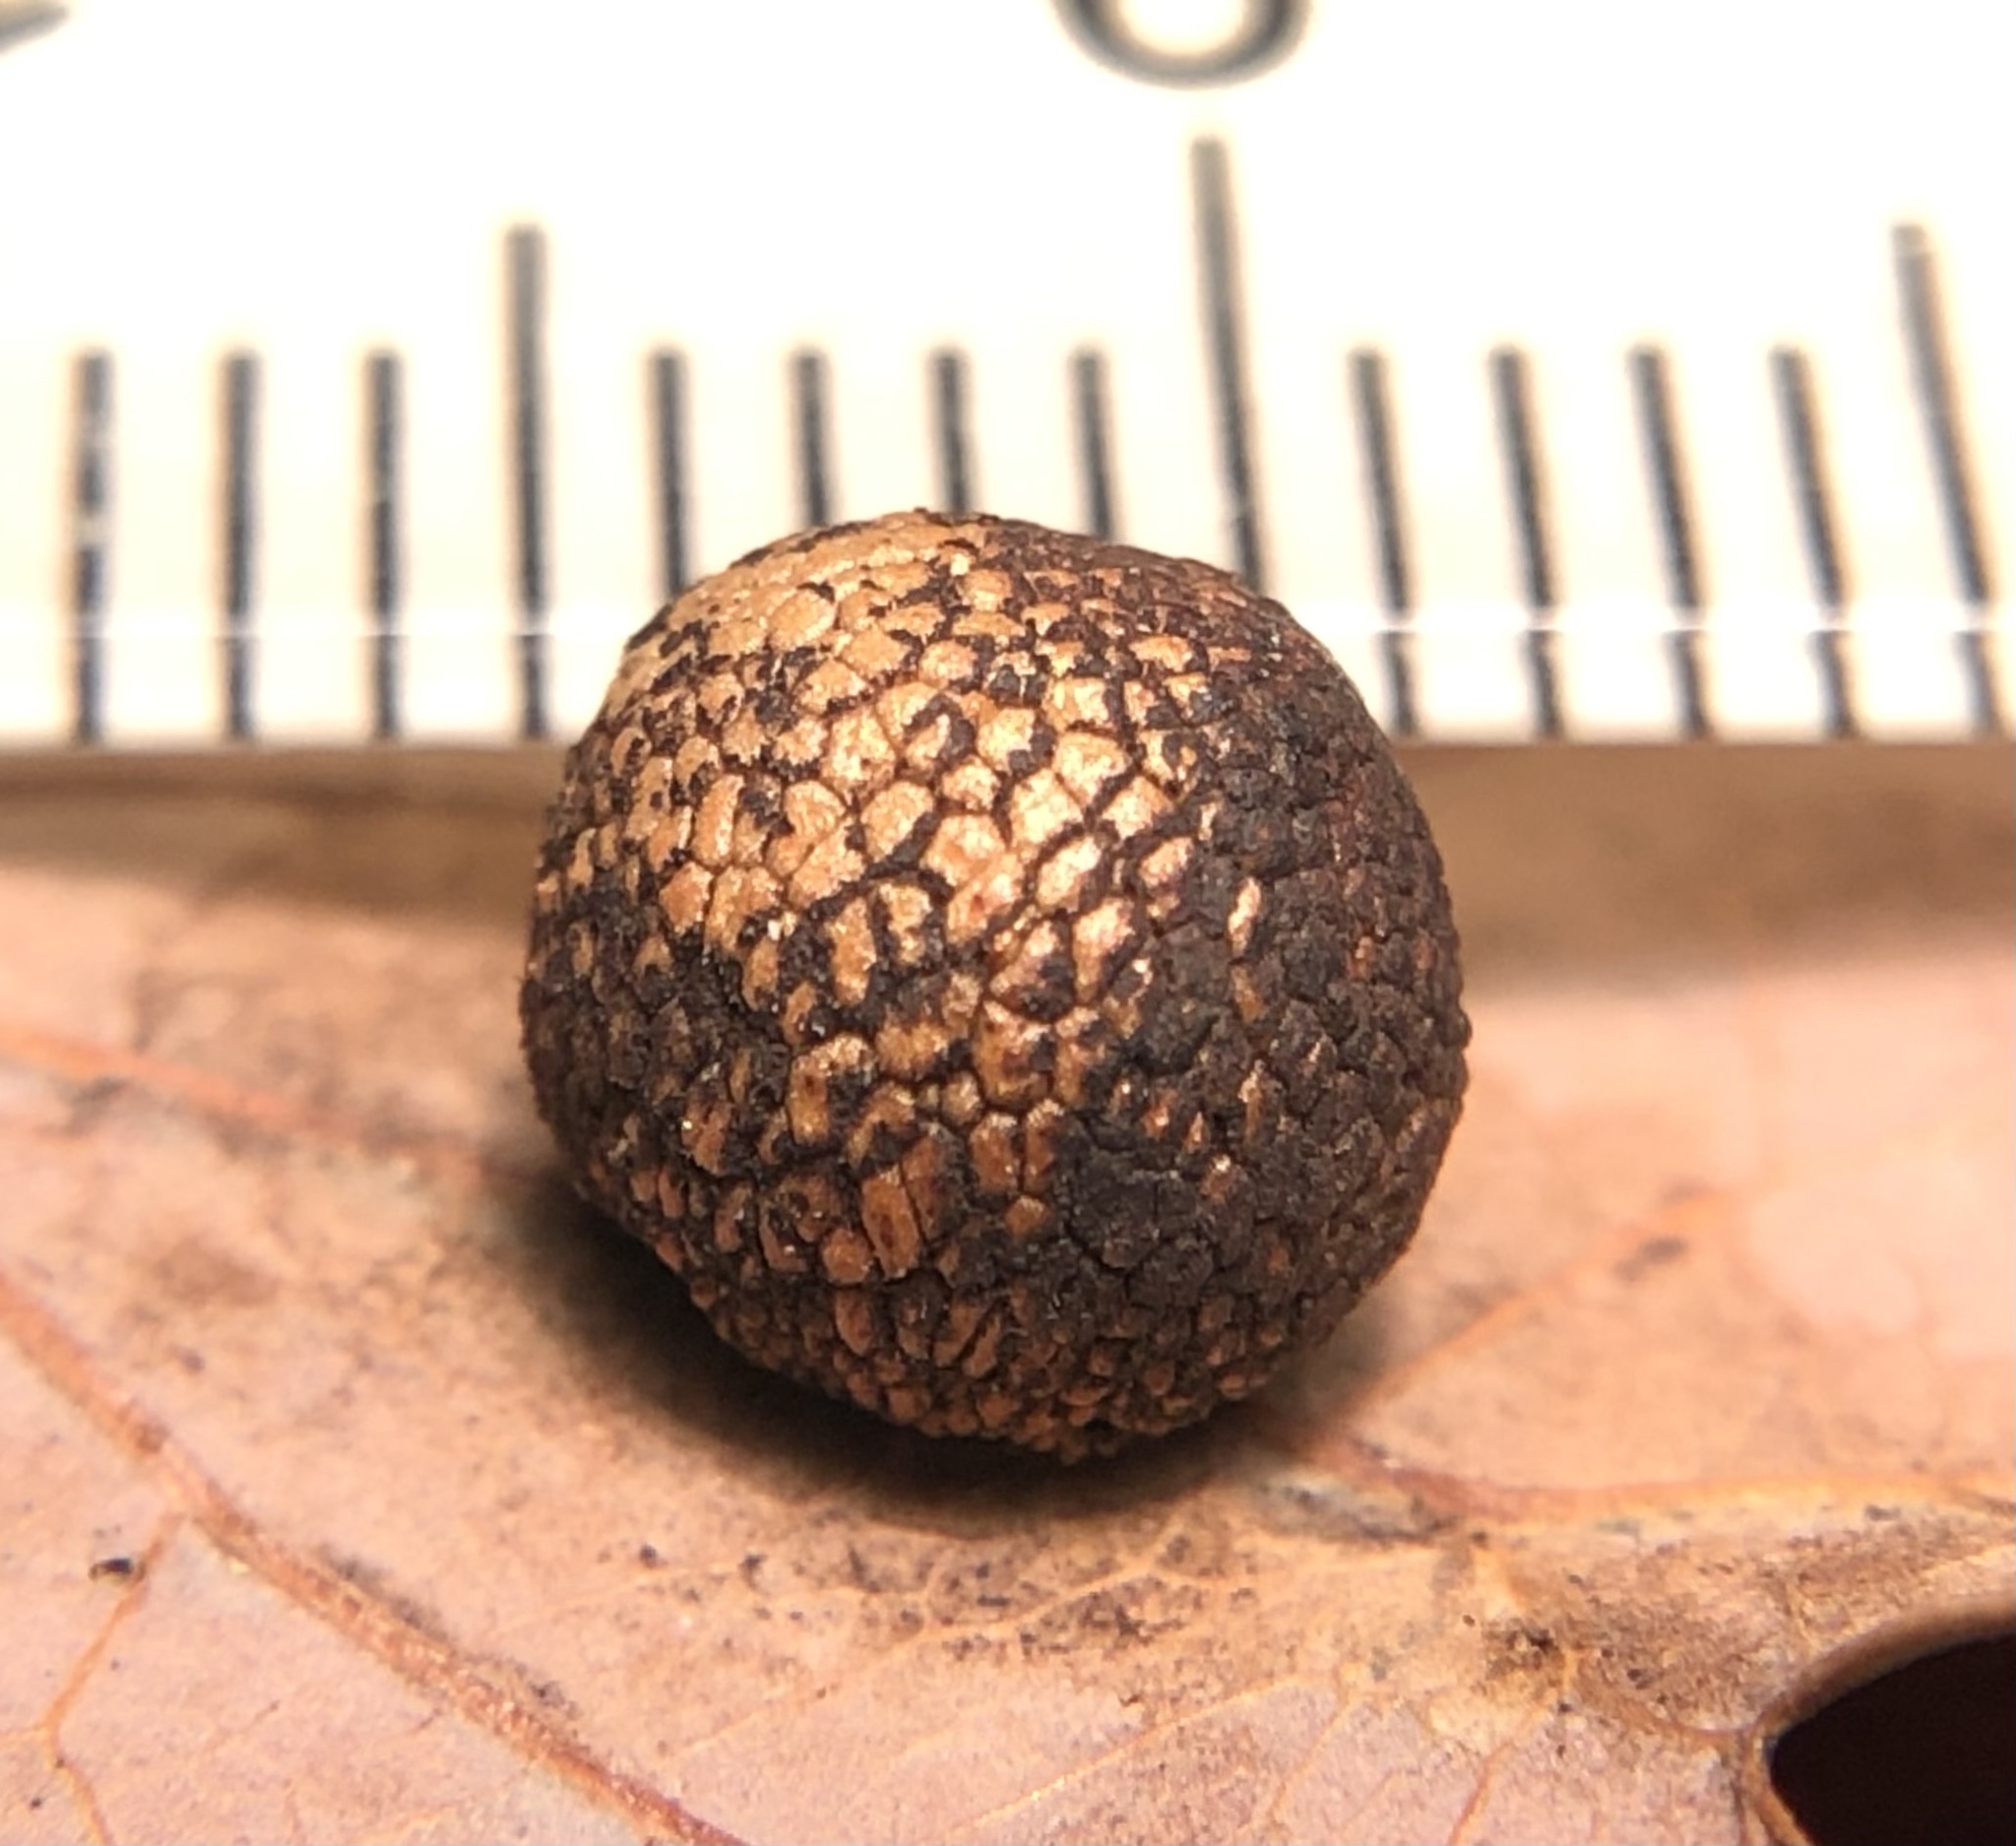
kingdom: Animalia
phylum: Arthropoda
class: Insecta
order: Hymenoptera
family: Cynipidae
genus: Acraspis
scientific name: Acraspis
